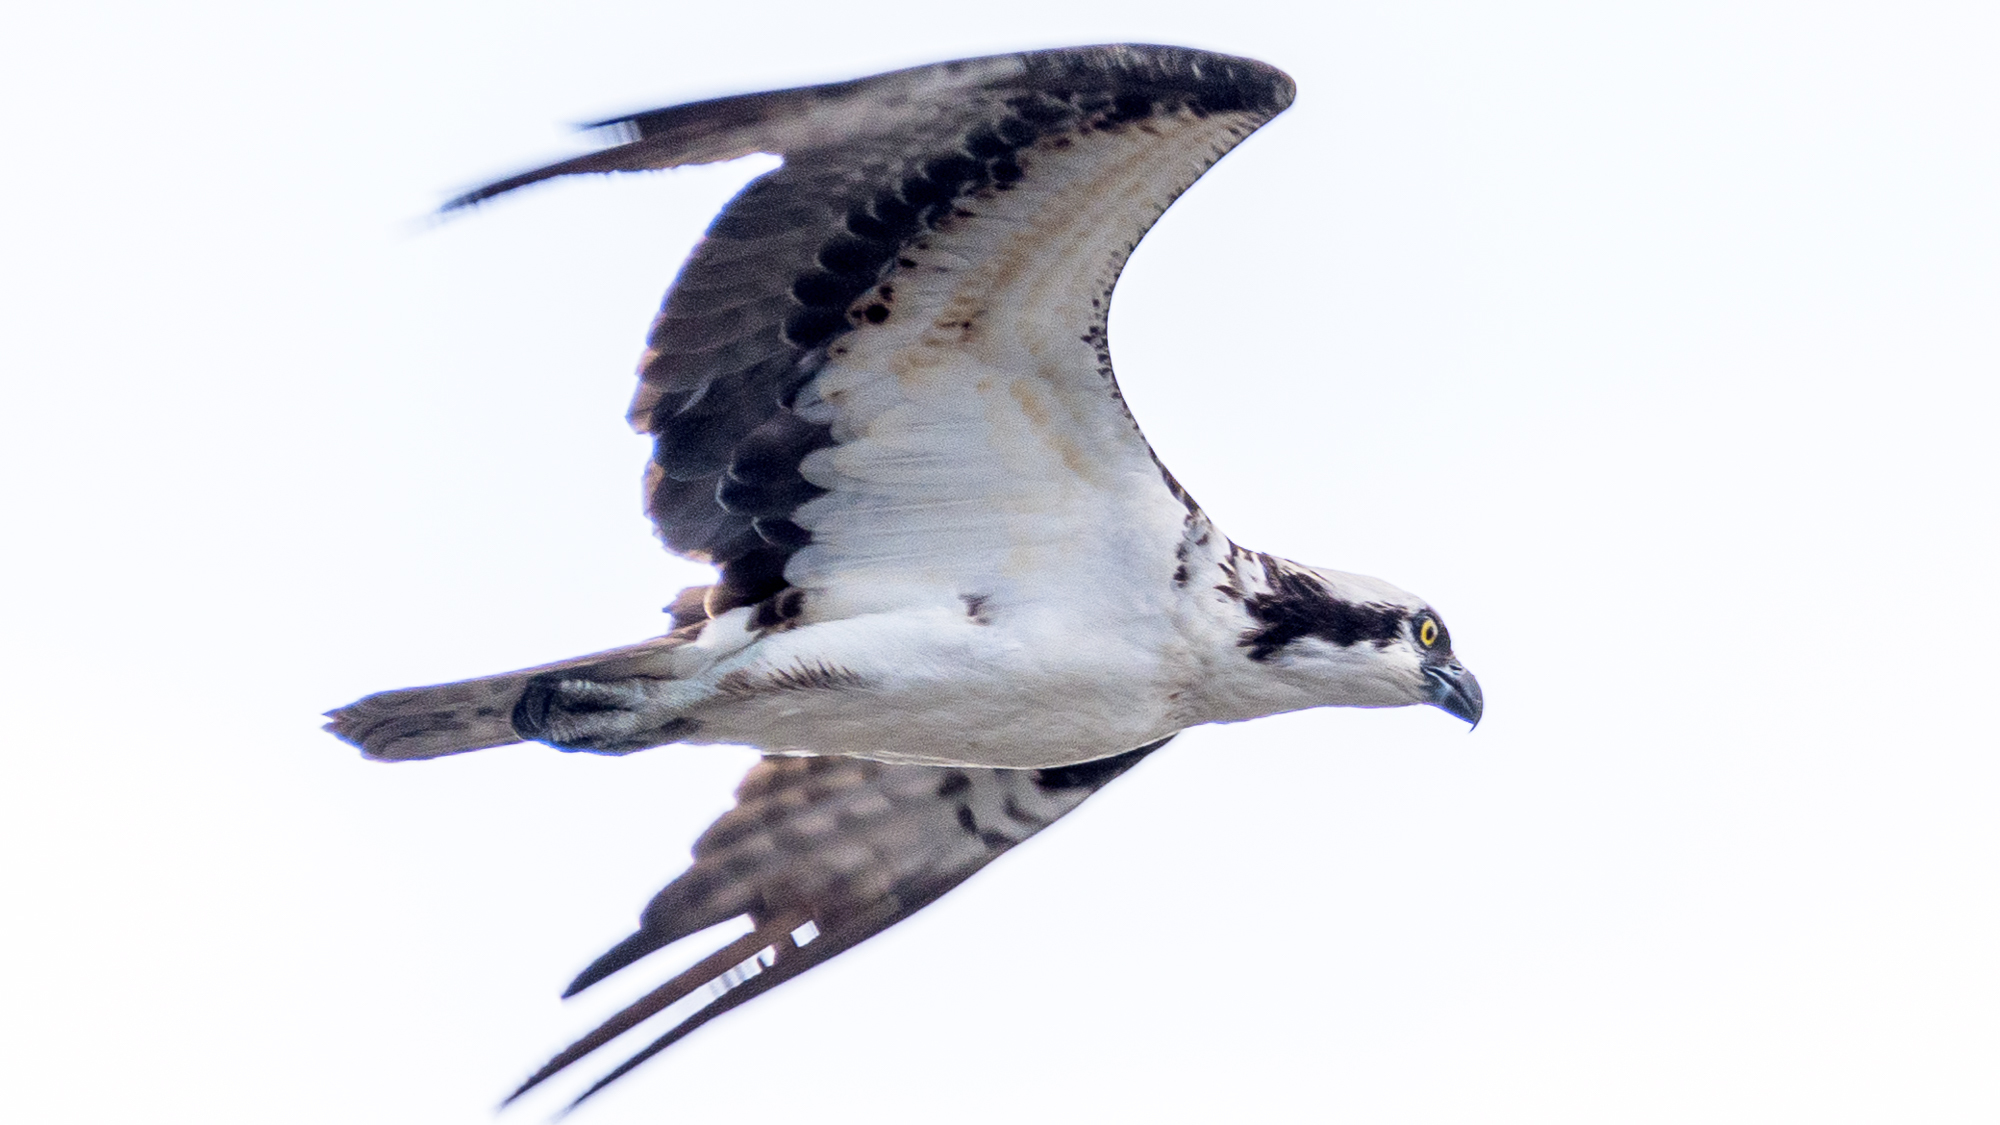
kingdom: Animalia
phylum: Chordata
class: Aves
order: Accipitriformes
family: Pandionidae
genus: Pandion
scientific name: Pandion haliaetus
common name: Osprey
